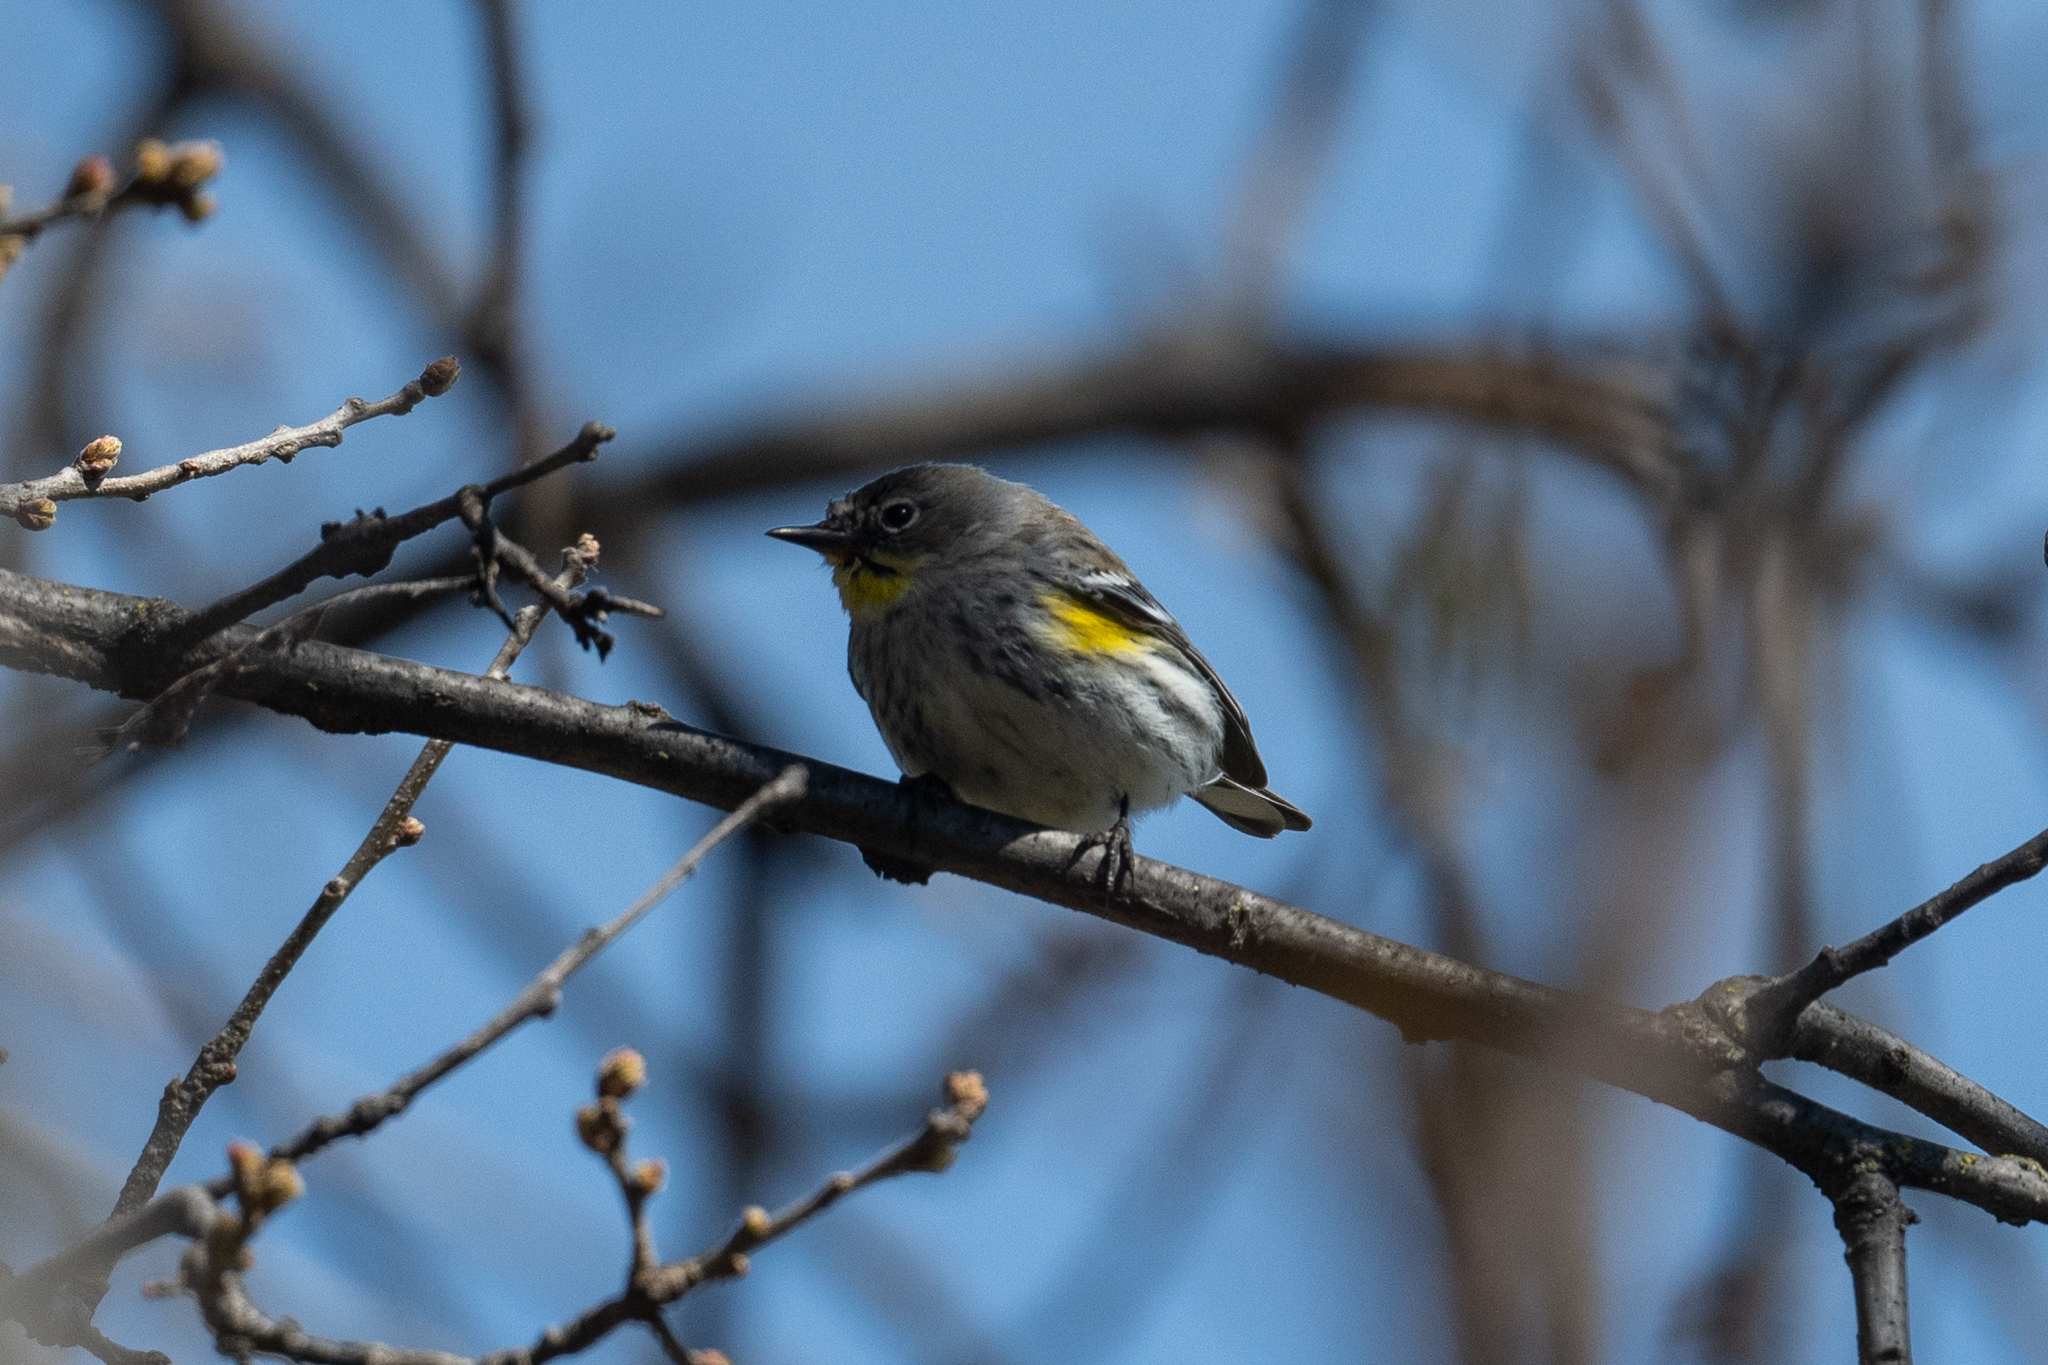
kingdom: Animalia
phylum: Chordata
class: Aves
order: Passeriformes
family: Parulidae
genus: Setophaga
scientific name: Setophaga coronata
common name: Myrtle warbler
